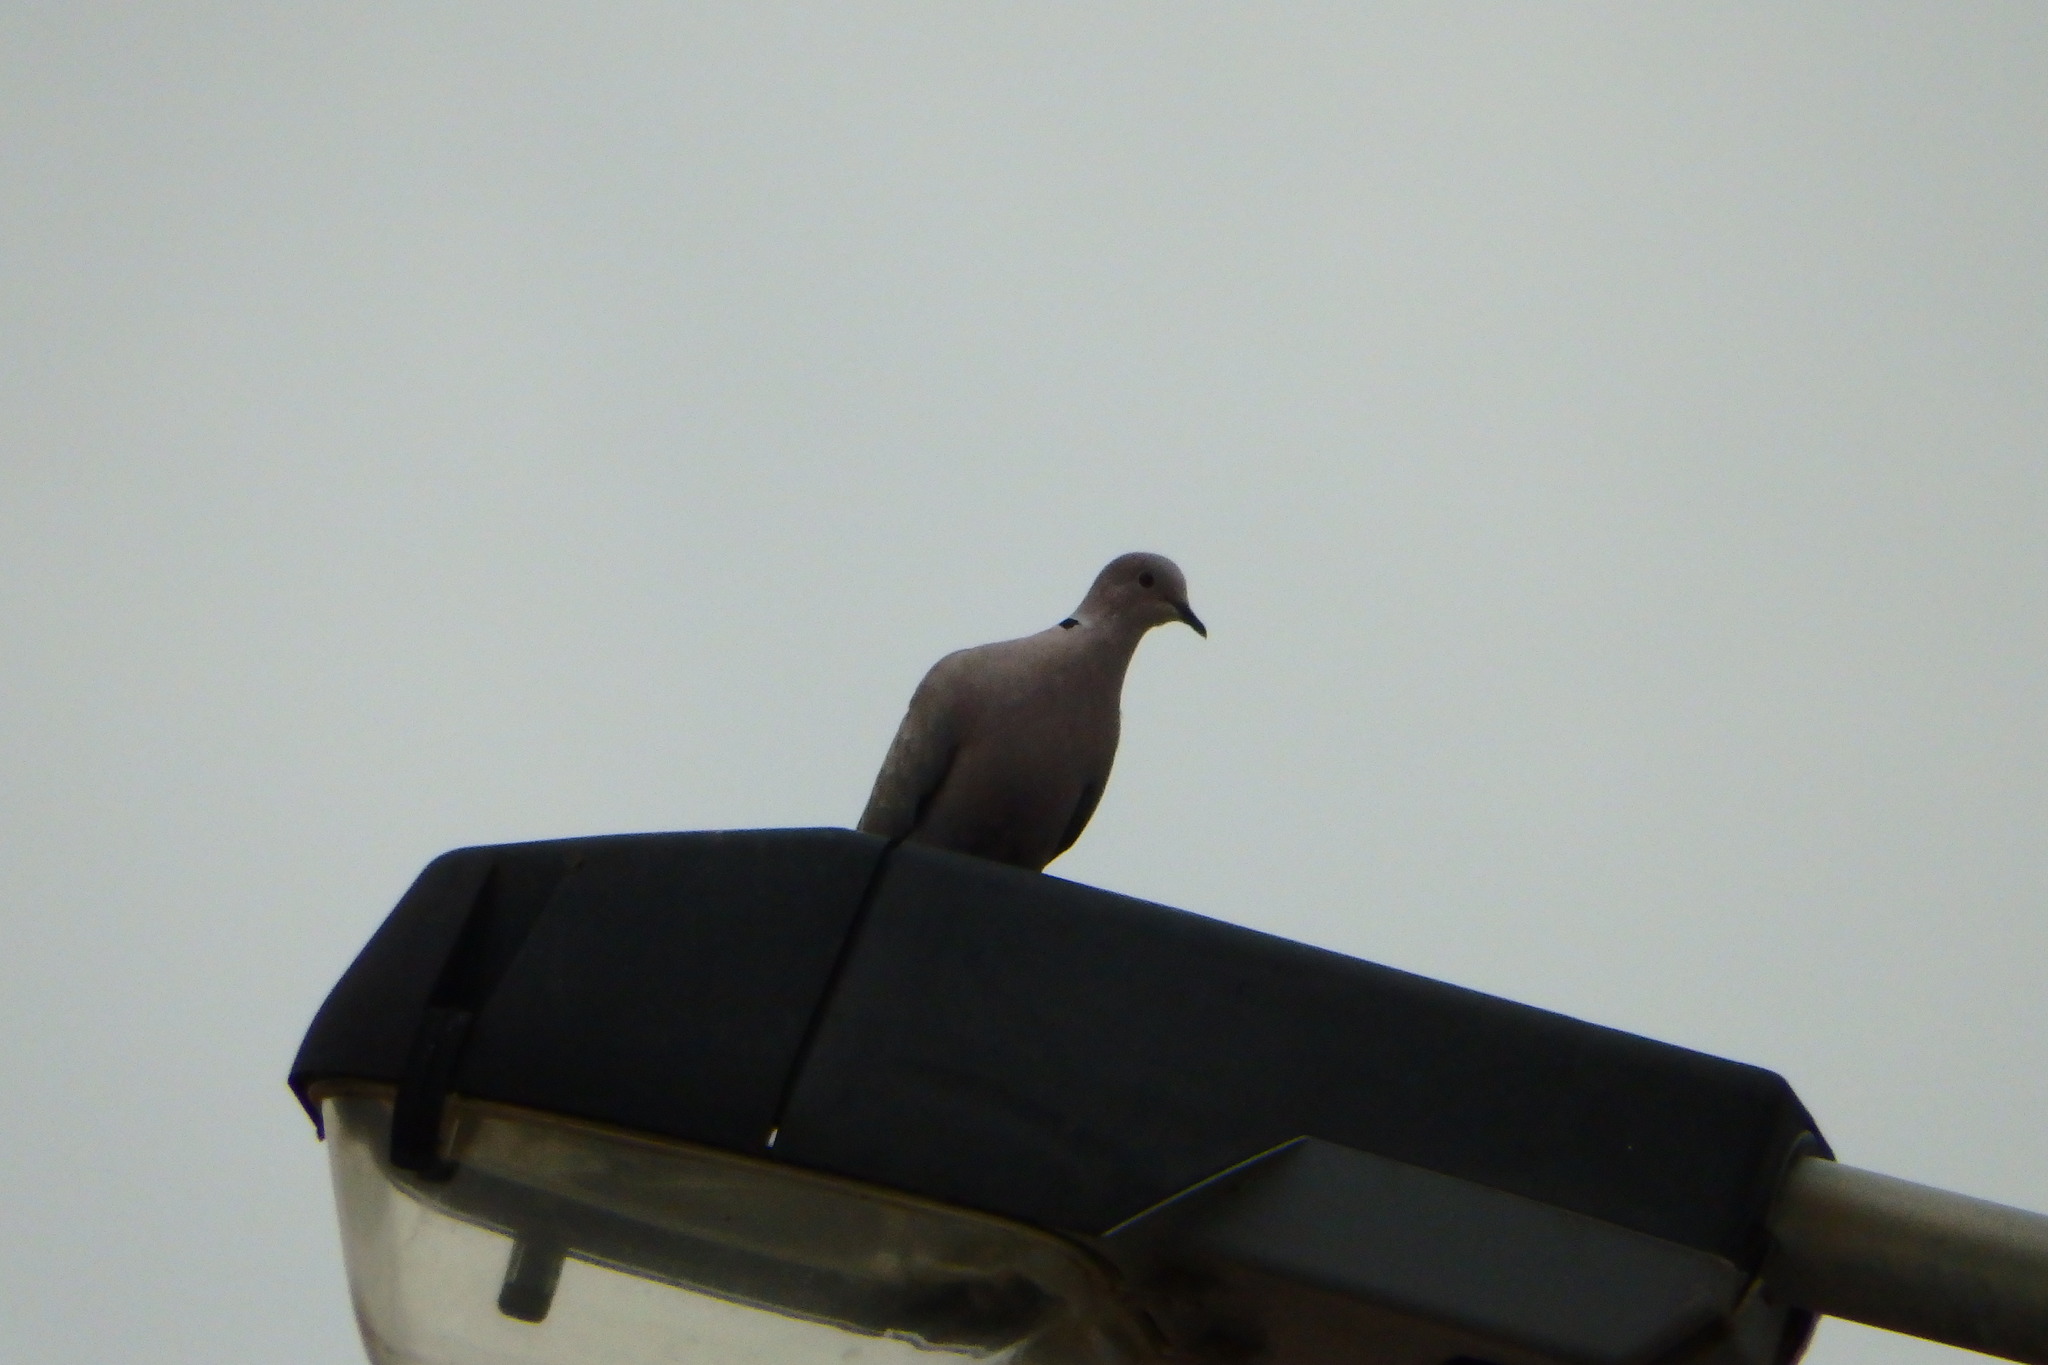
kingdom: Animalia
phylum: Chordata
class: Aves
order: Columbiformes
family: Columbidae
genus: Streptopelia
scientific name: Streptopelia decaocto
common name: Eurasian collared dove
